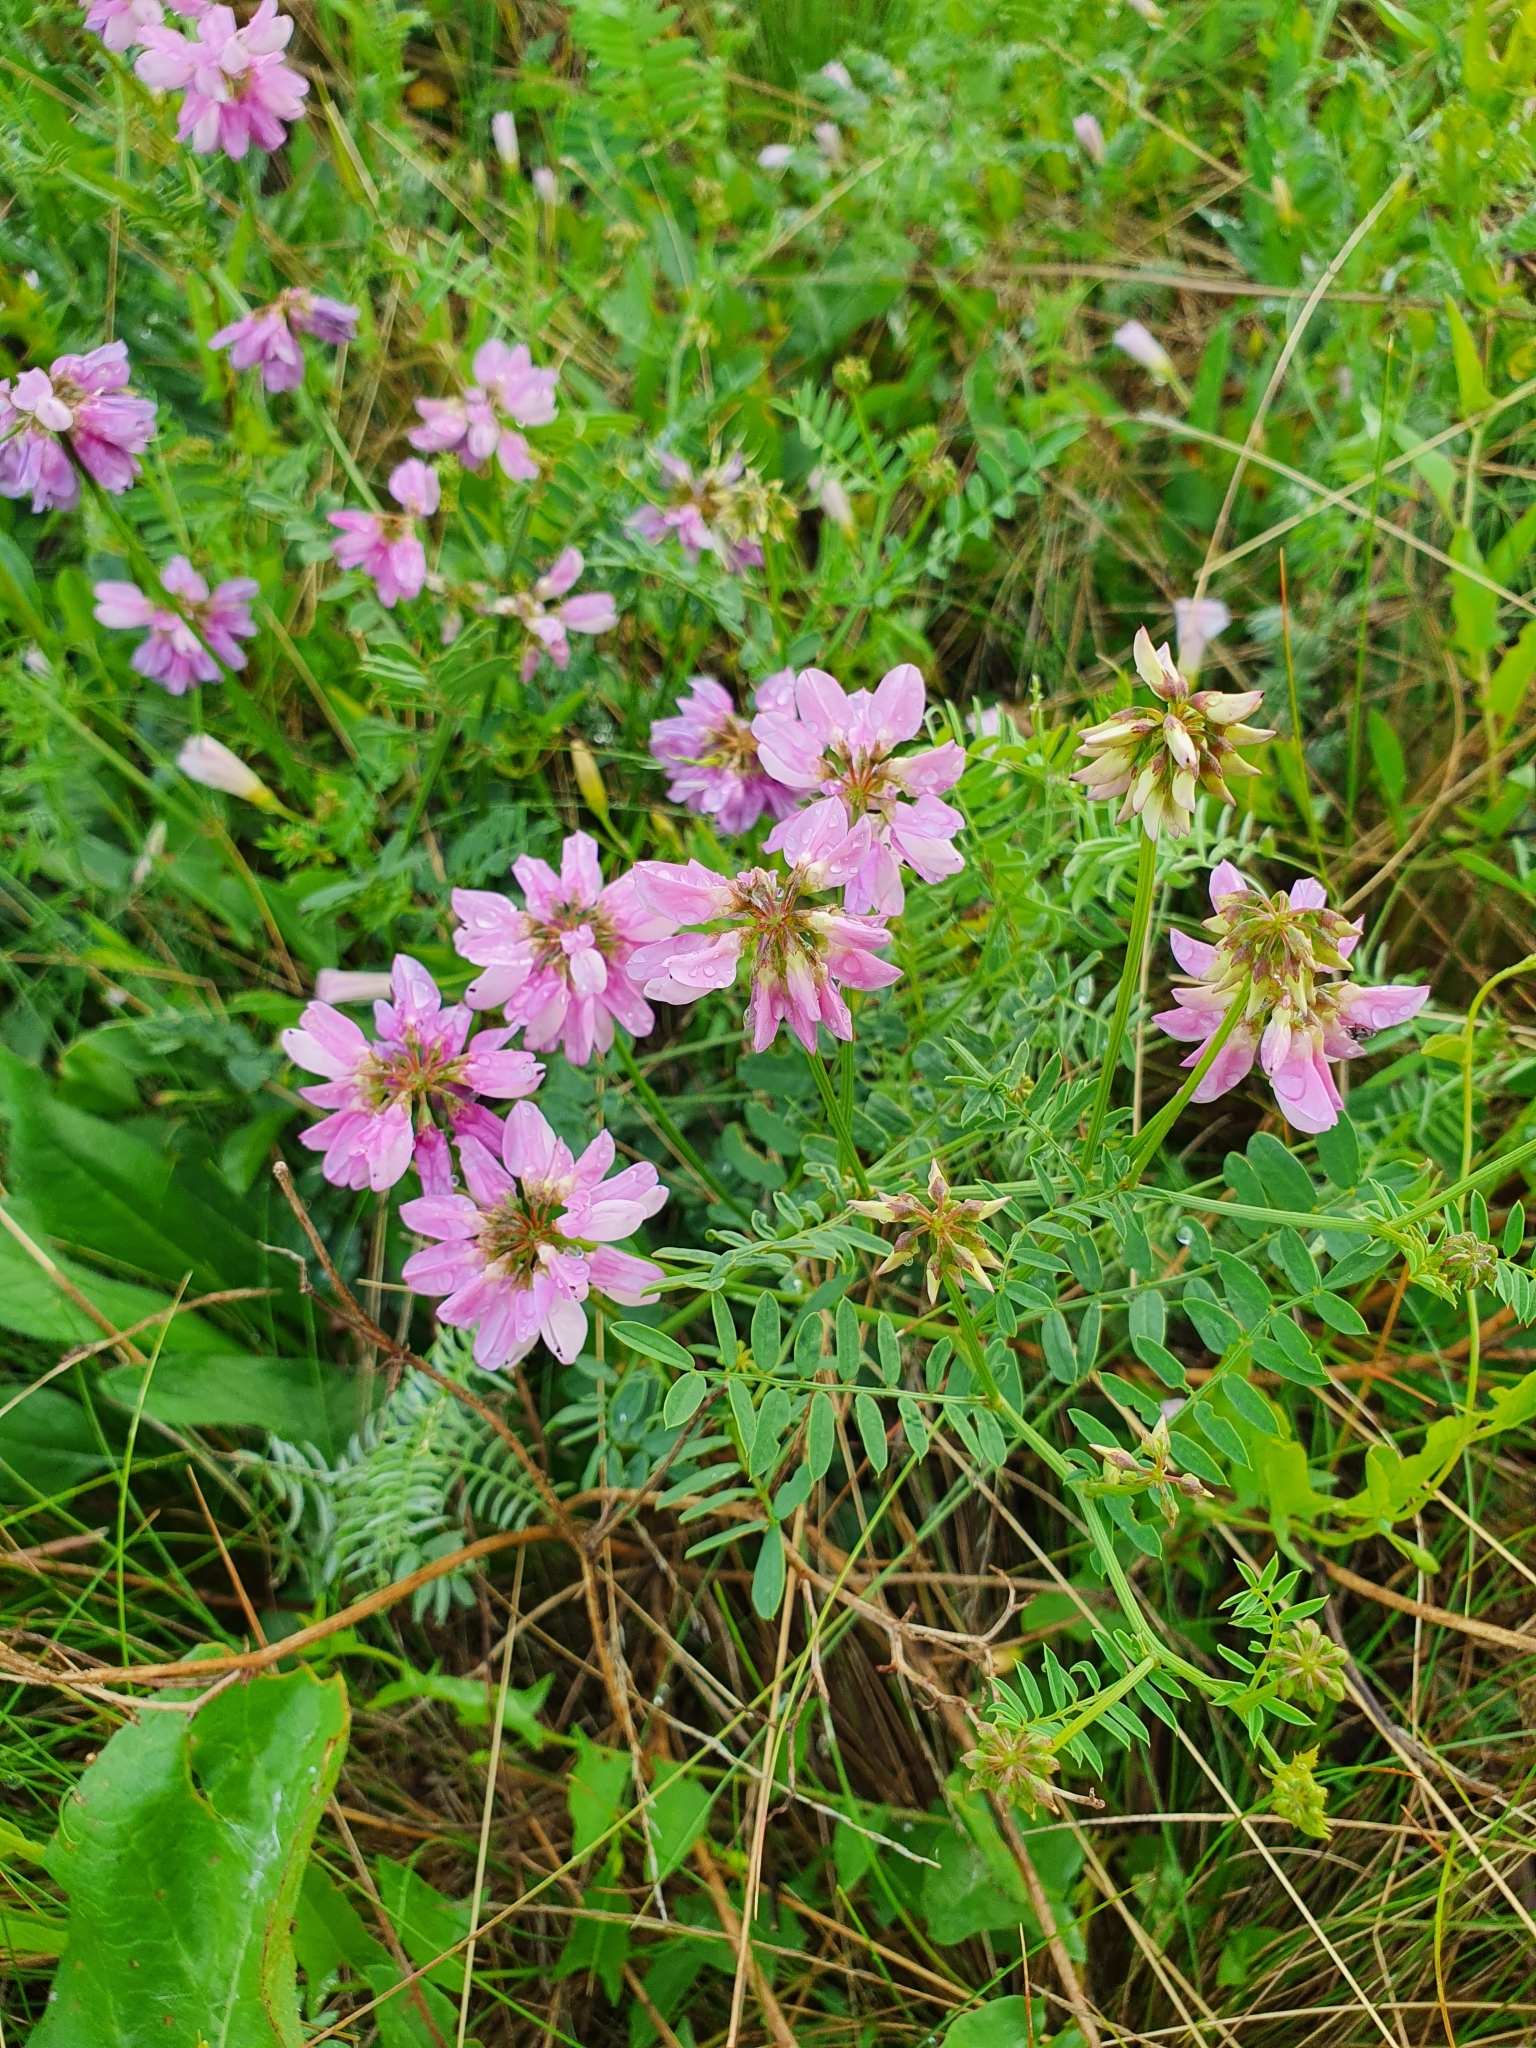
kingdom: Plantae
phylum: Tracheophyta
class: Magnoliopsida
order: Fabales
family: Fabaceae
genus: Coronilla
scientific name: Coronilla varia
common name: Crownvetch
